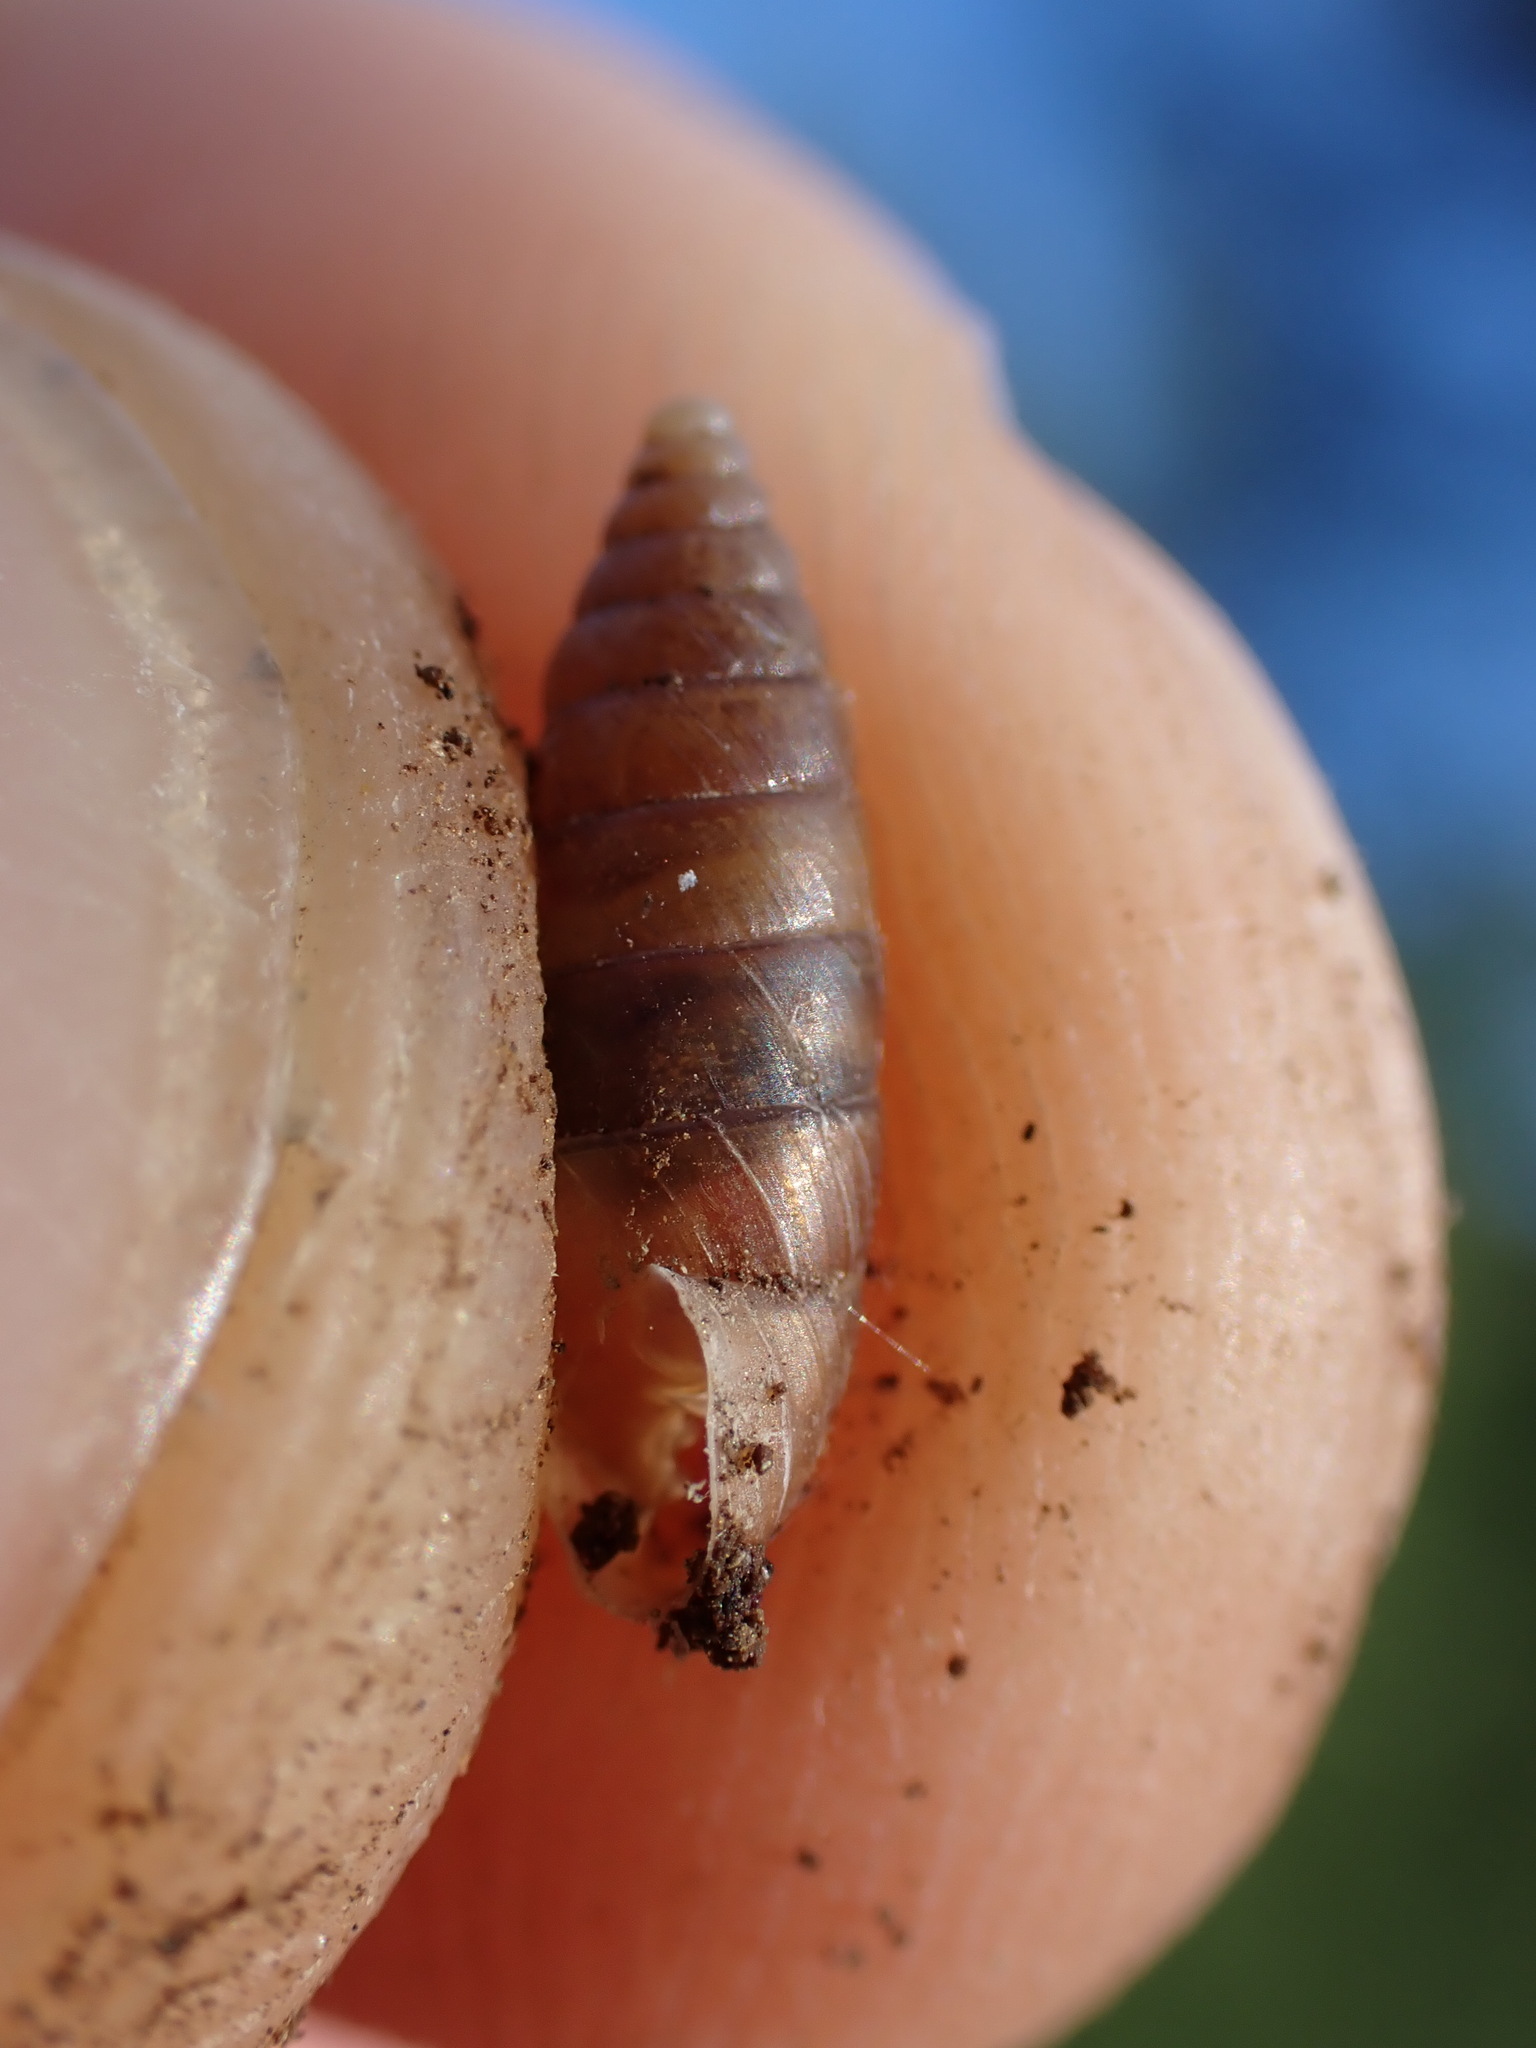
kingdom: Animalia
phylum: Mollusca
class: Gastropoda
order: Stylommatophora
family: Chondrinidae
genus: Granaria
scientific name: Granaria variabilis
